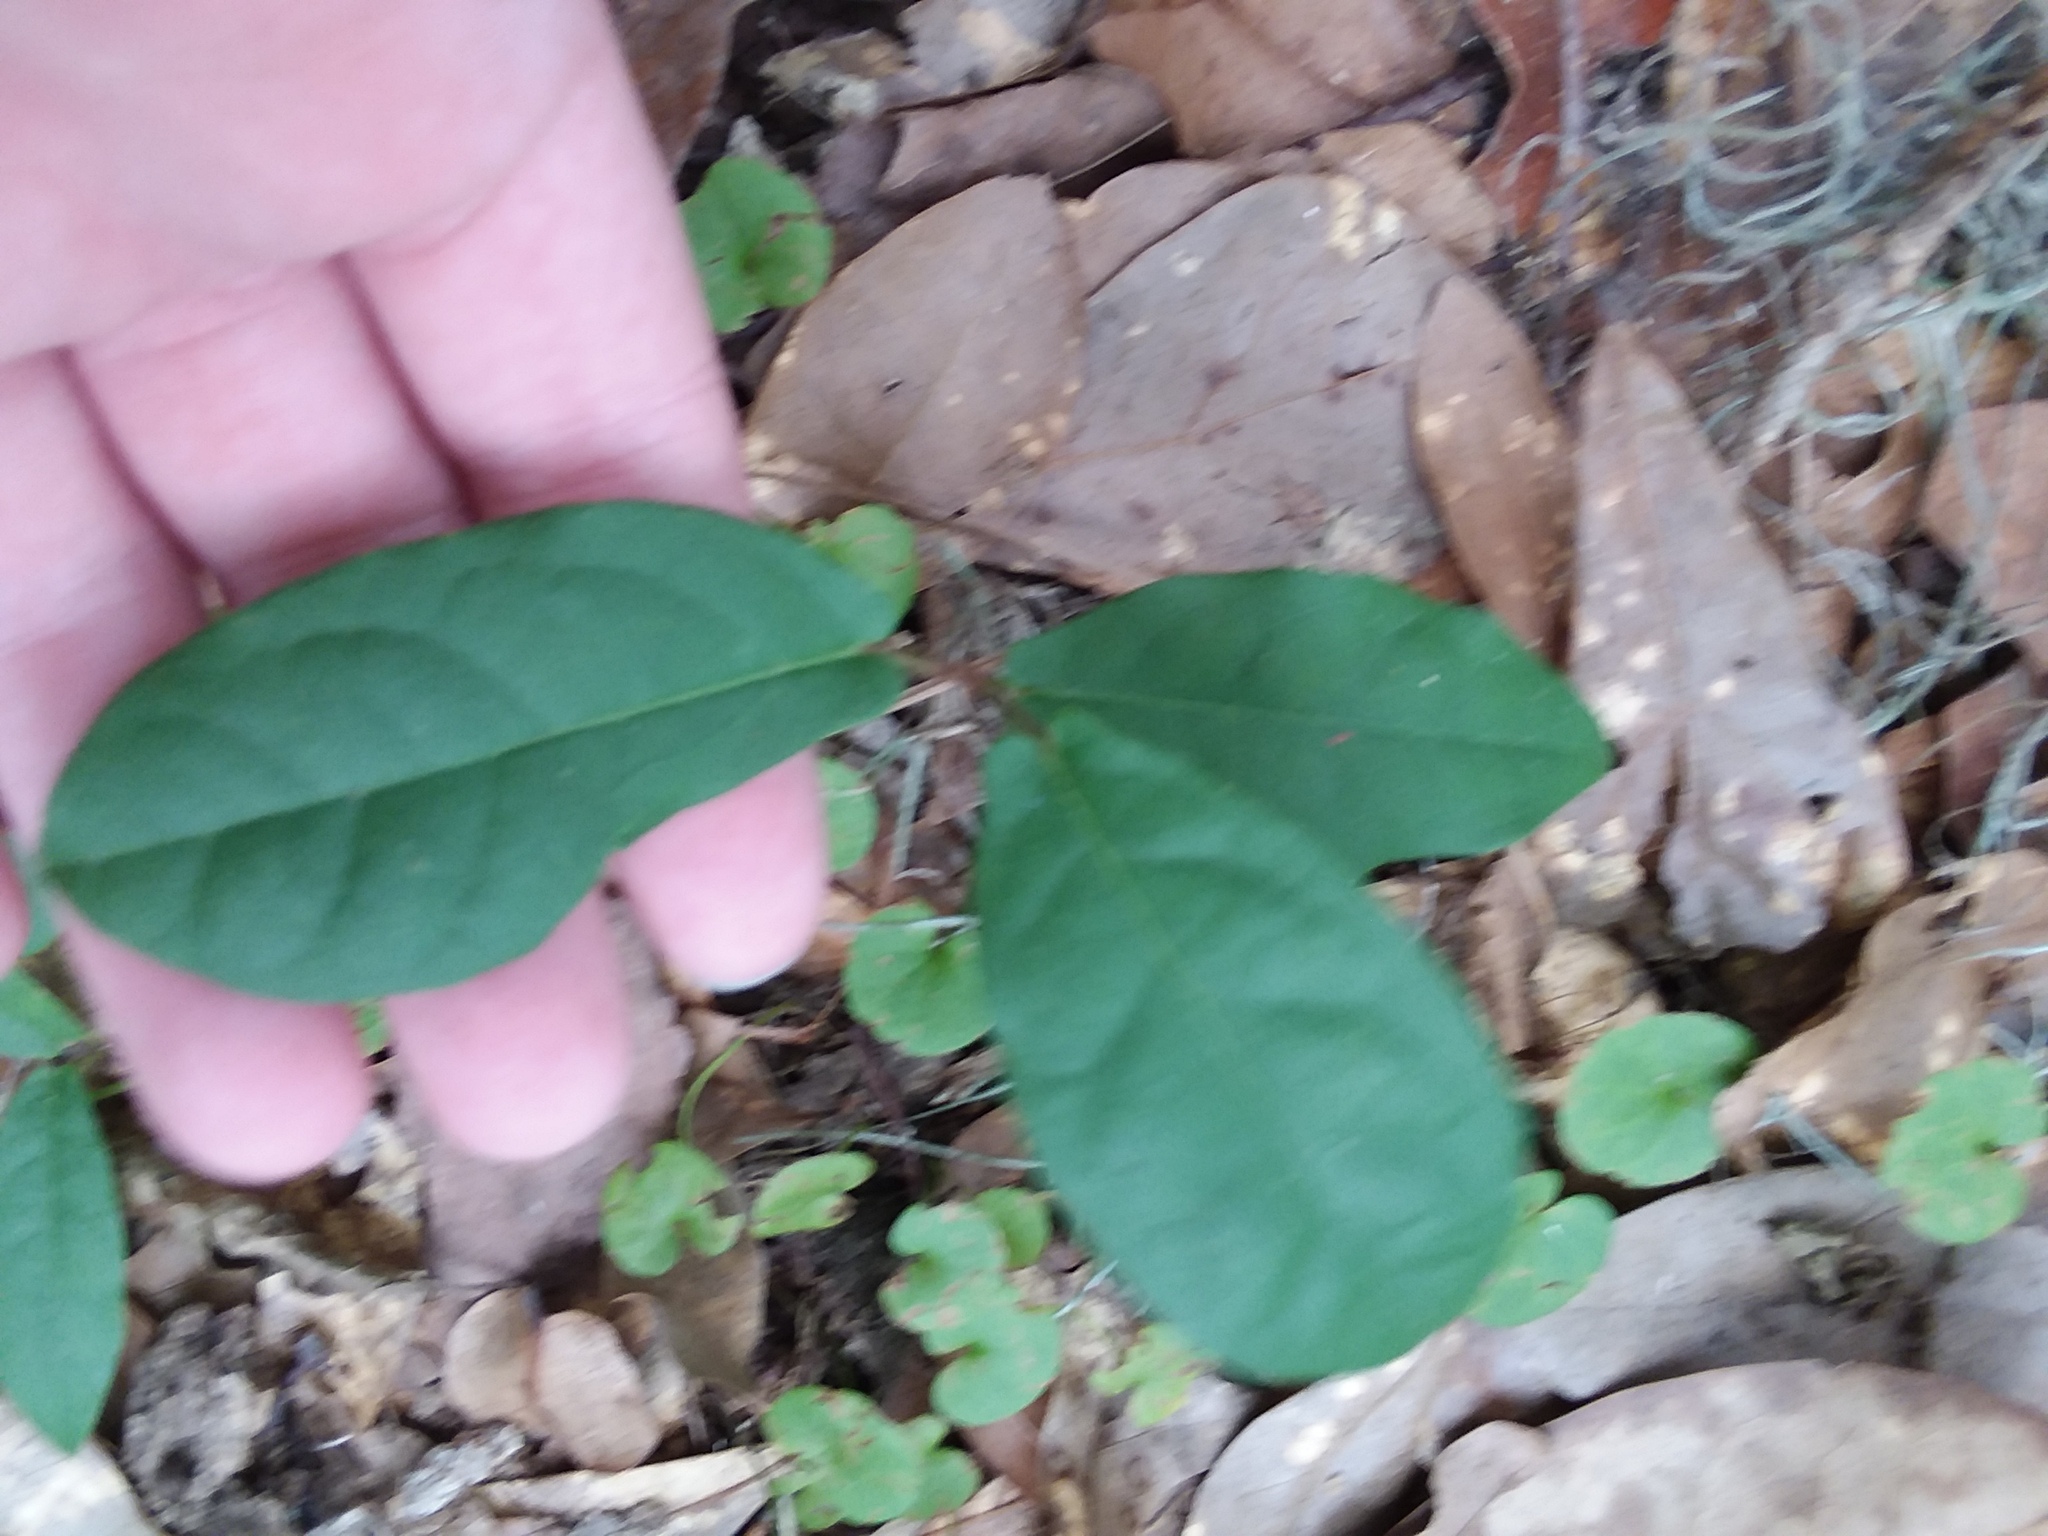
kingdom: Plantae
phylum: Tracheophyta
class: Magnoliopsida
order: Lamiales
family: Bignoniaceae
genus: Bignonia
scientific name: Bignonia capreolata
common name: Crossvine
